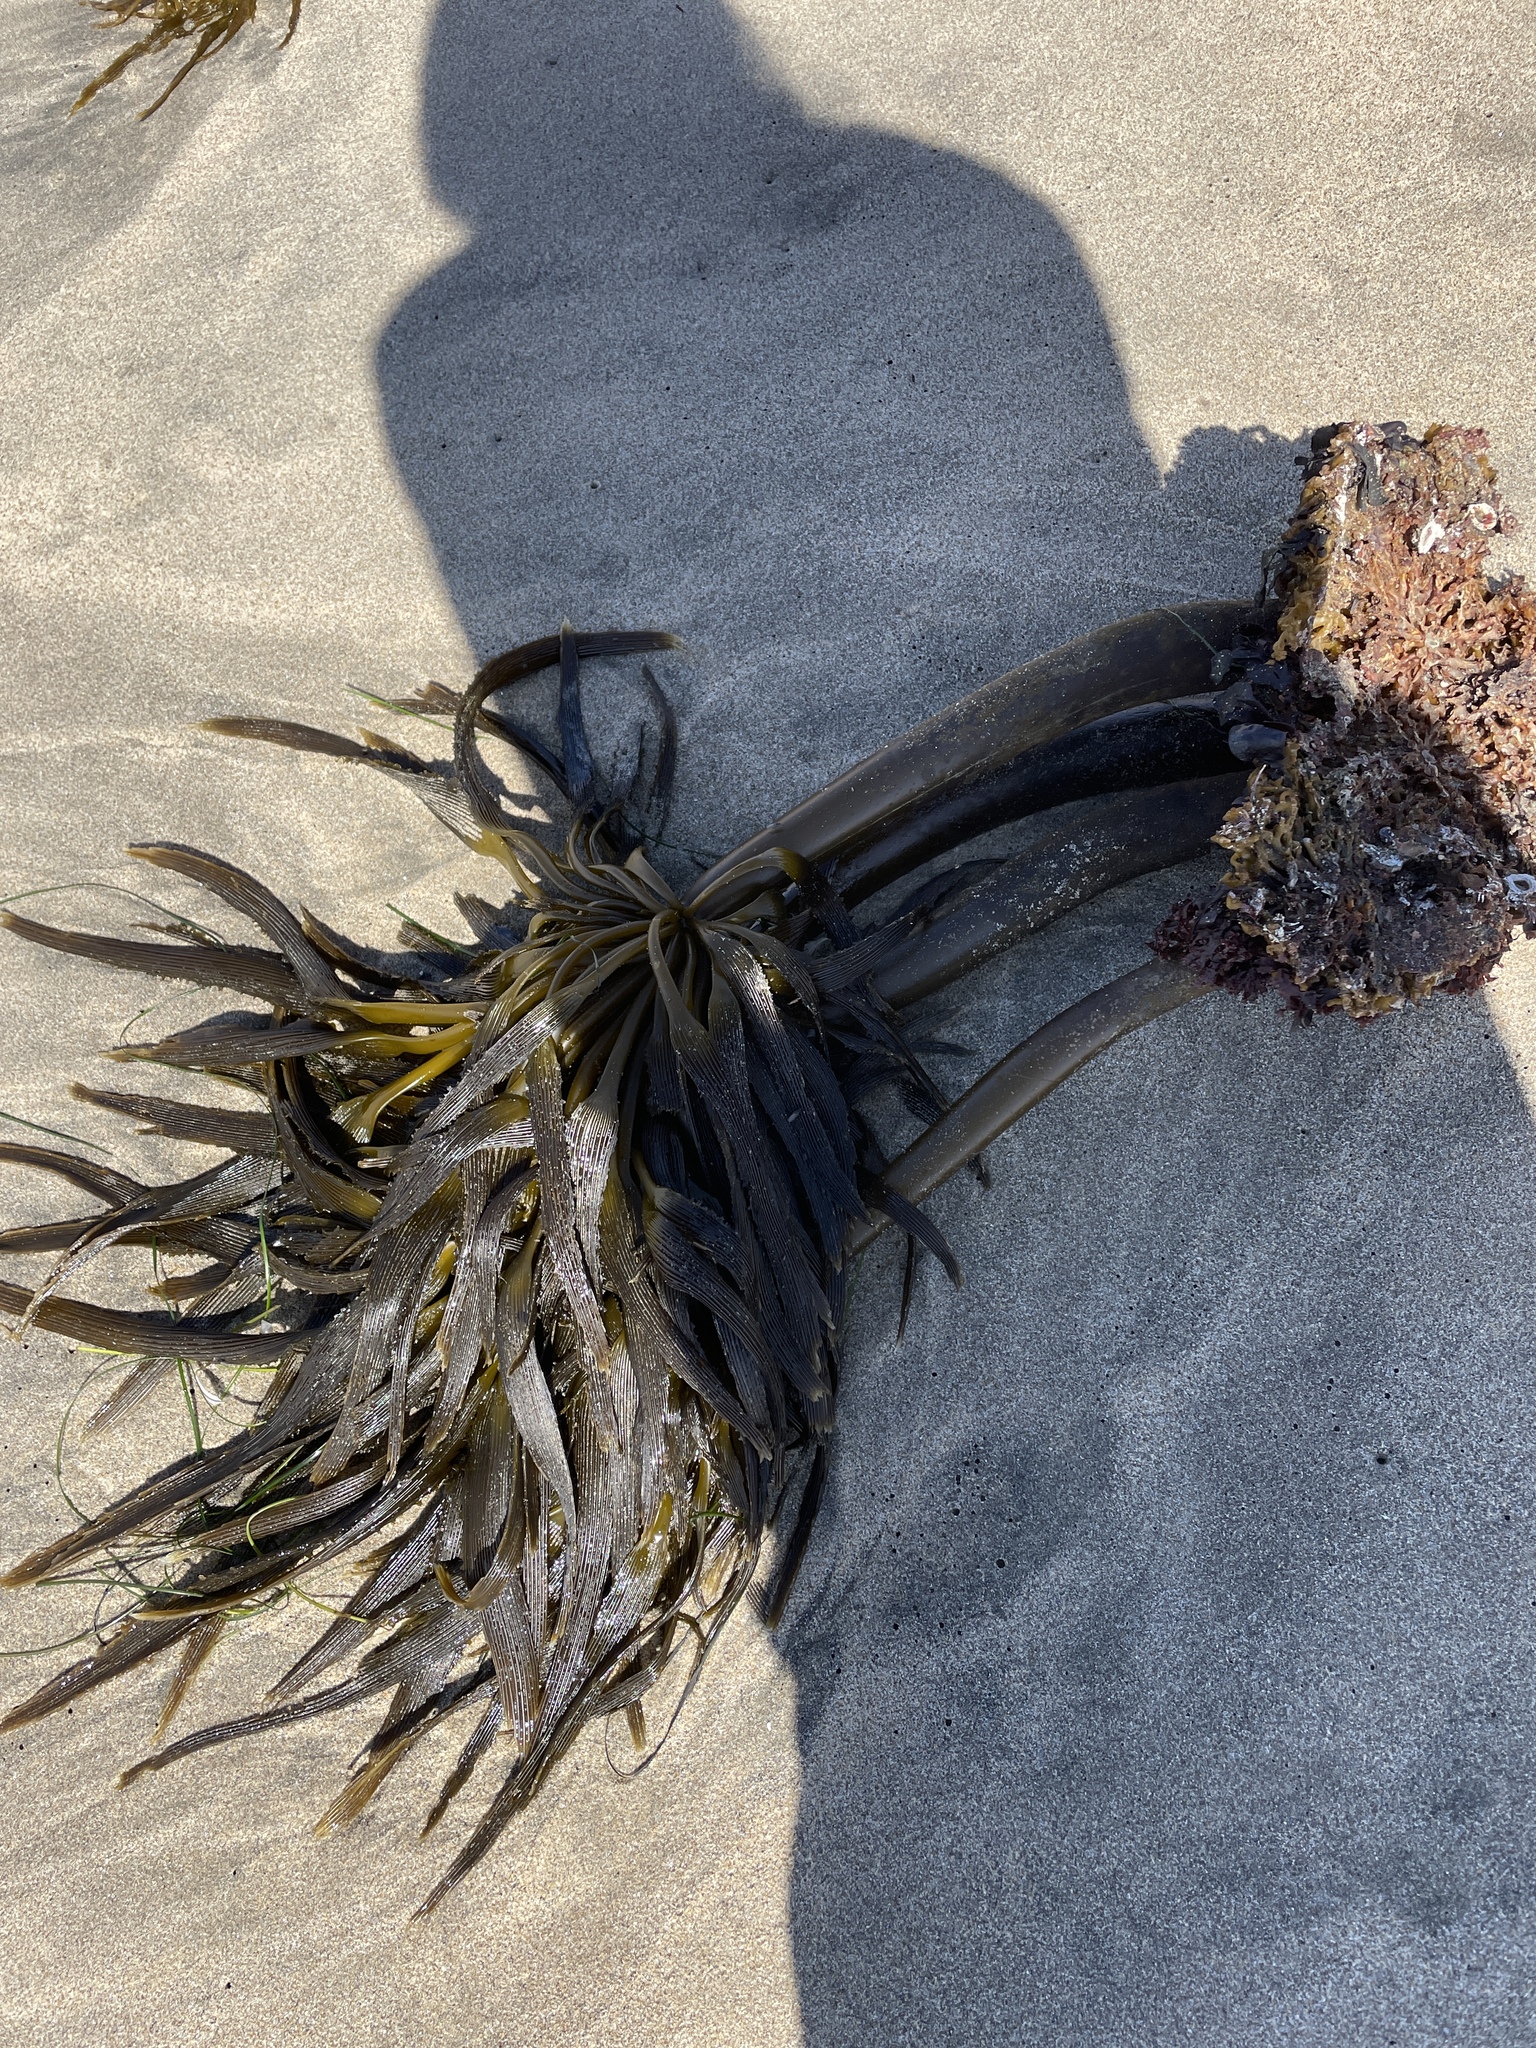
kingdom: Chromista
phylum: Ochrophyta
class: Phaeophyceae
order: Laminariales
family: Laminariaceae
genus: Postelsia
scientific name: Postelsia palmiformis
